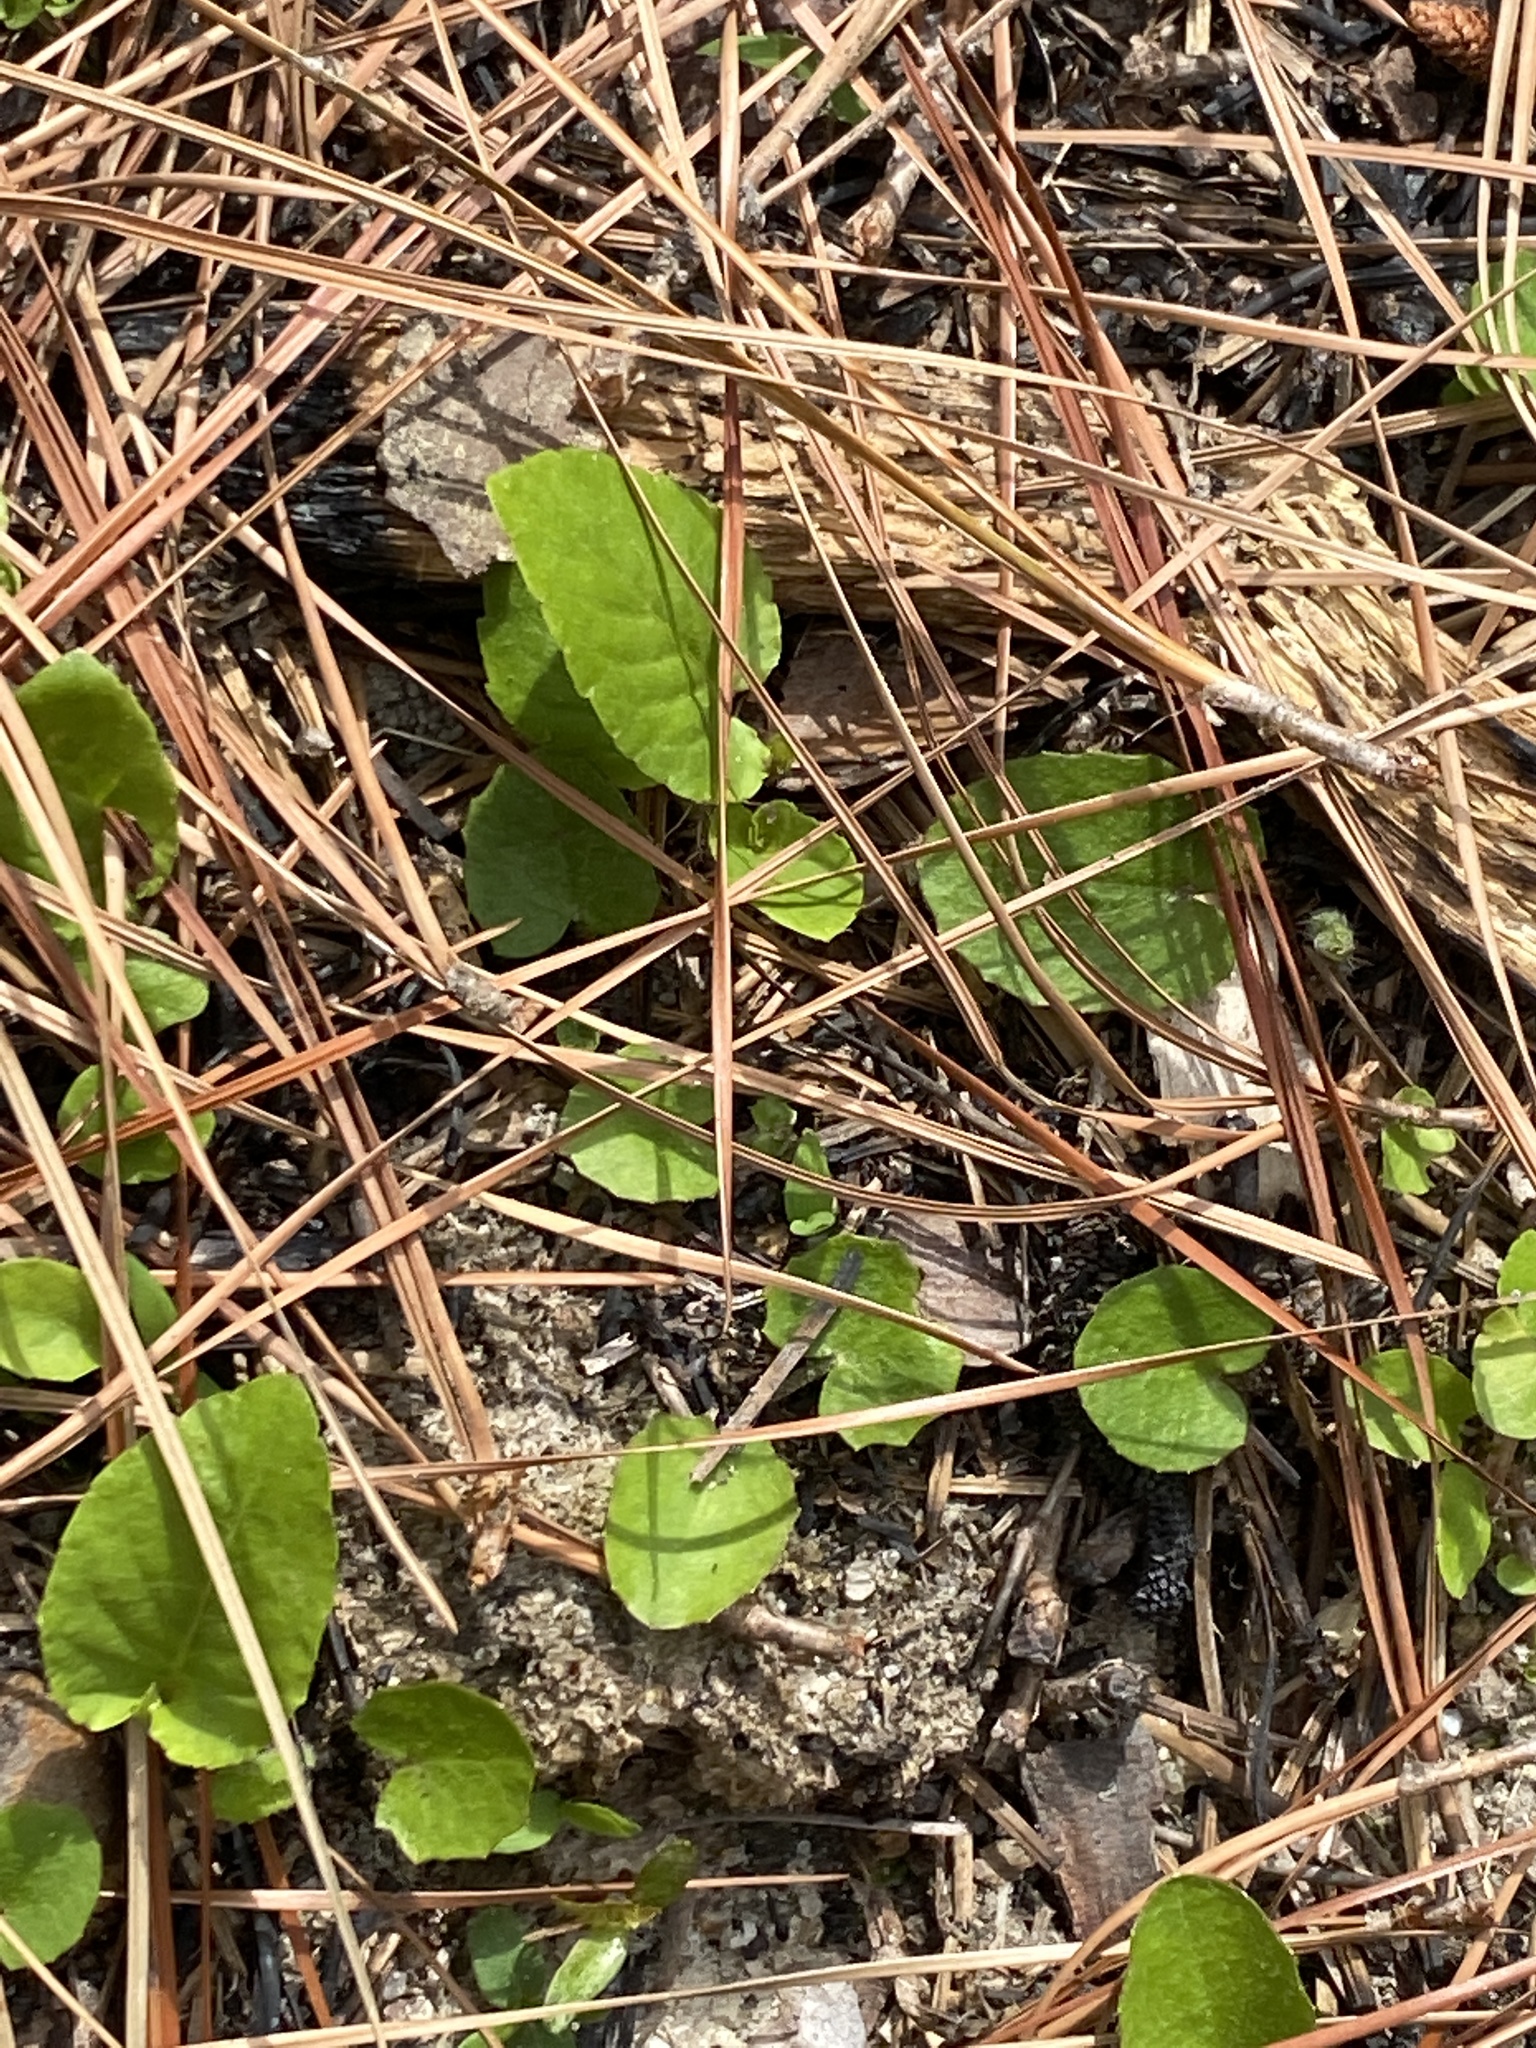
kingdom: Plantae
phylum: Tracheophyta
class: Magnoliopsida
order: Apiales
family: Apiaceae
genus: Centella
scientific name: Centella erecta
